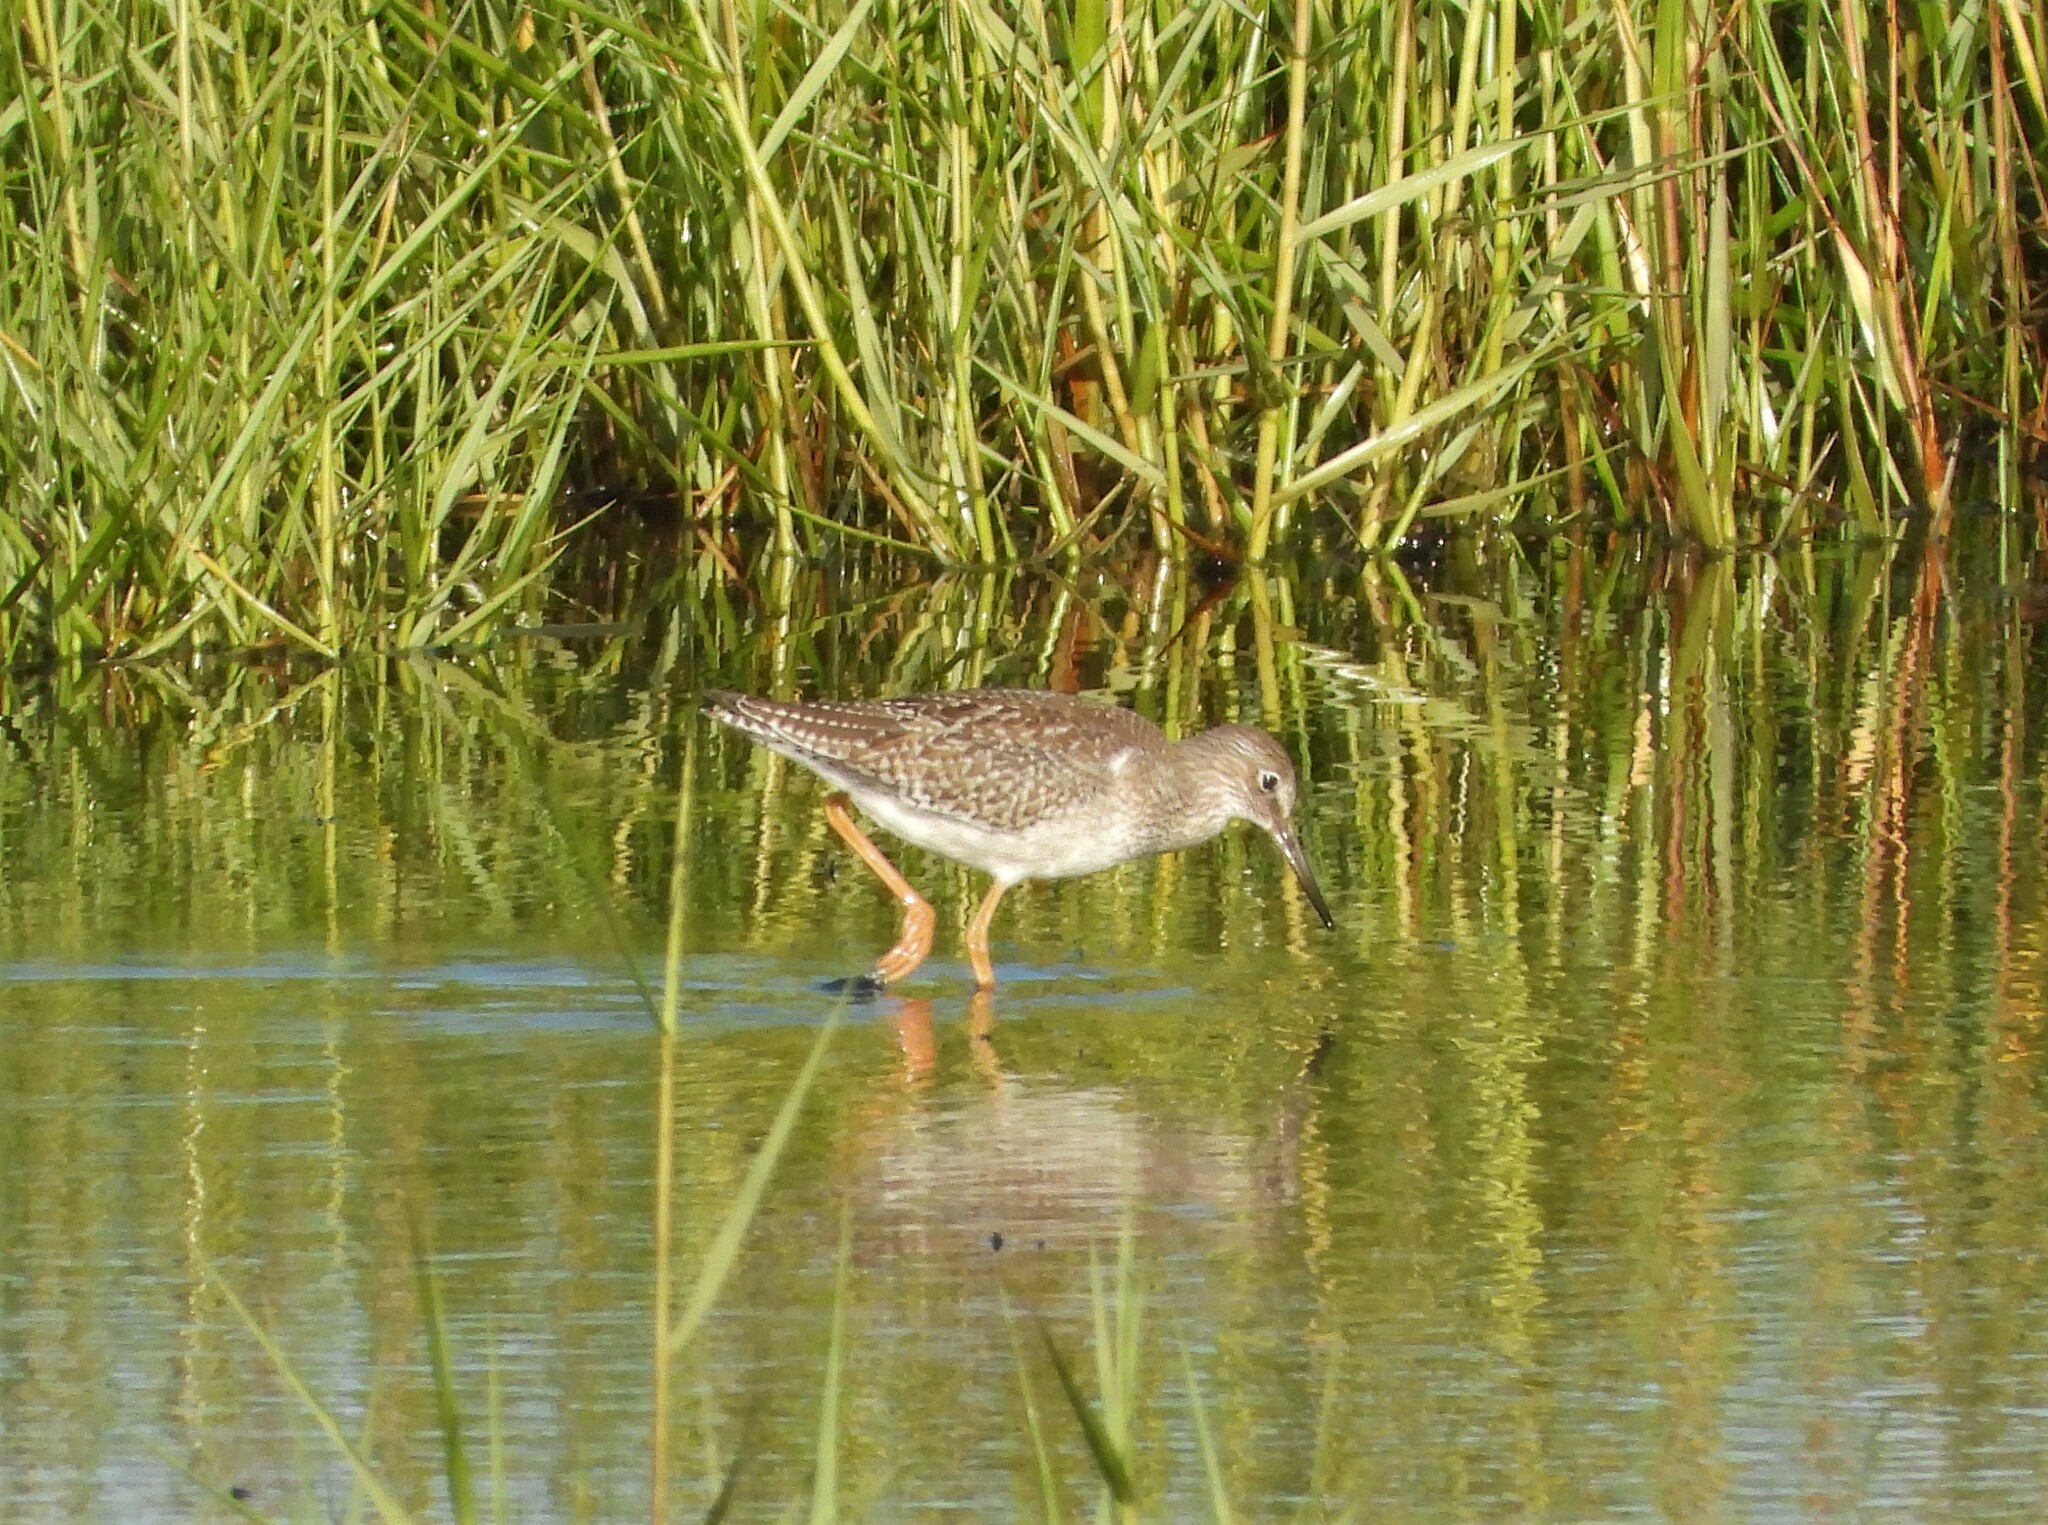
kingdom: Animalia
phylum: Chordata
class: Aves
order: Charadriiformes
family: Scolopacidae
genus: Tringa
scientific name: Tringa totanus
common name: Common redshank
